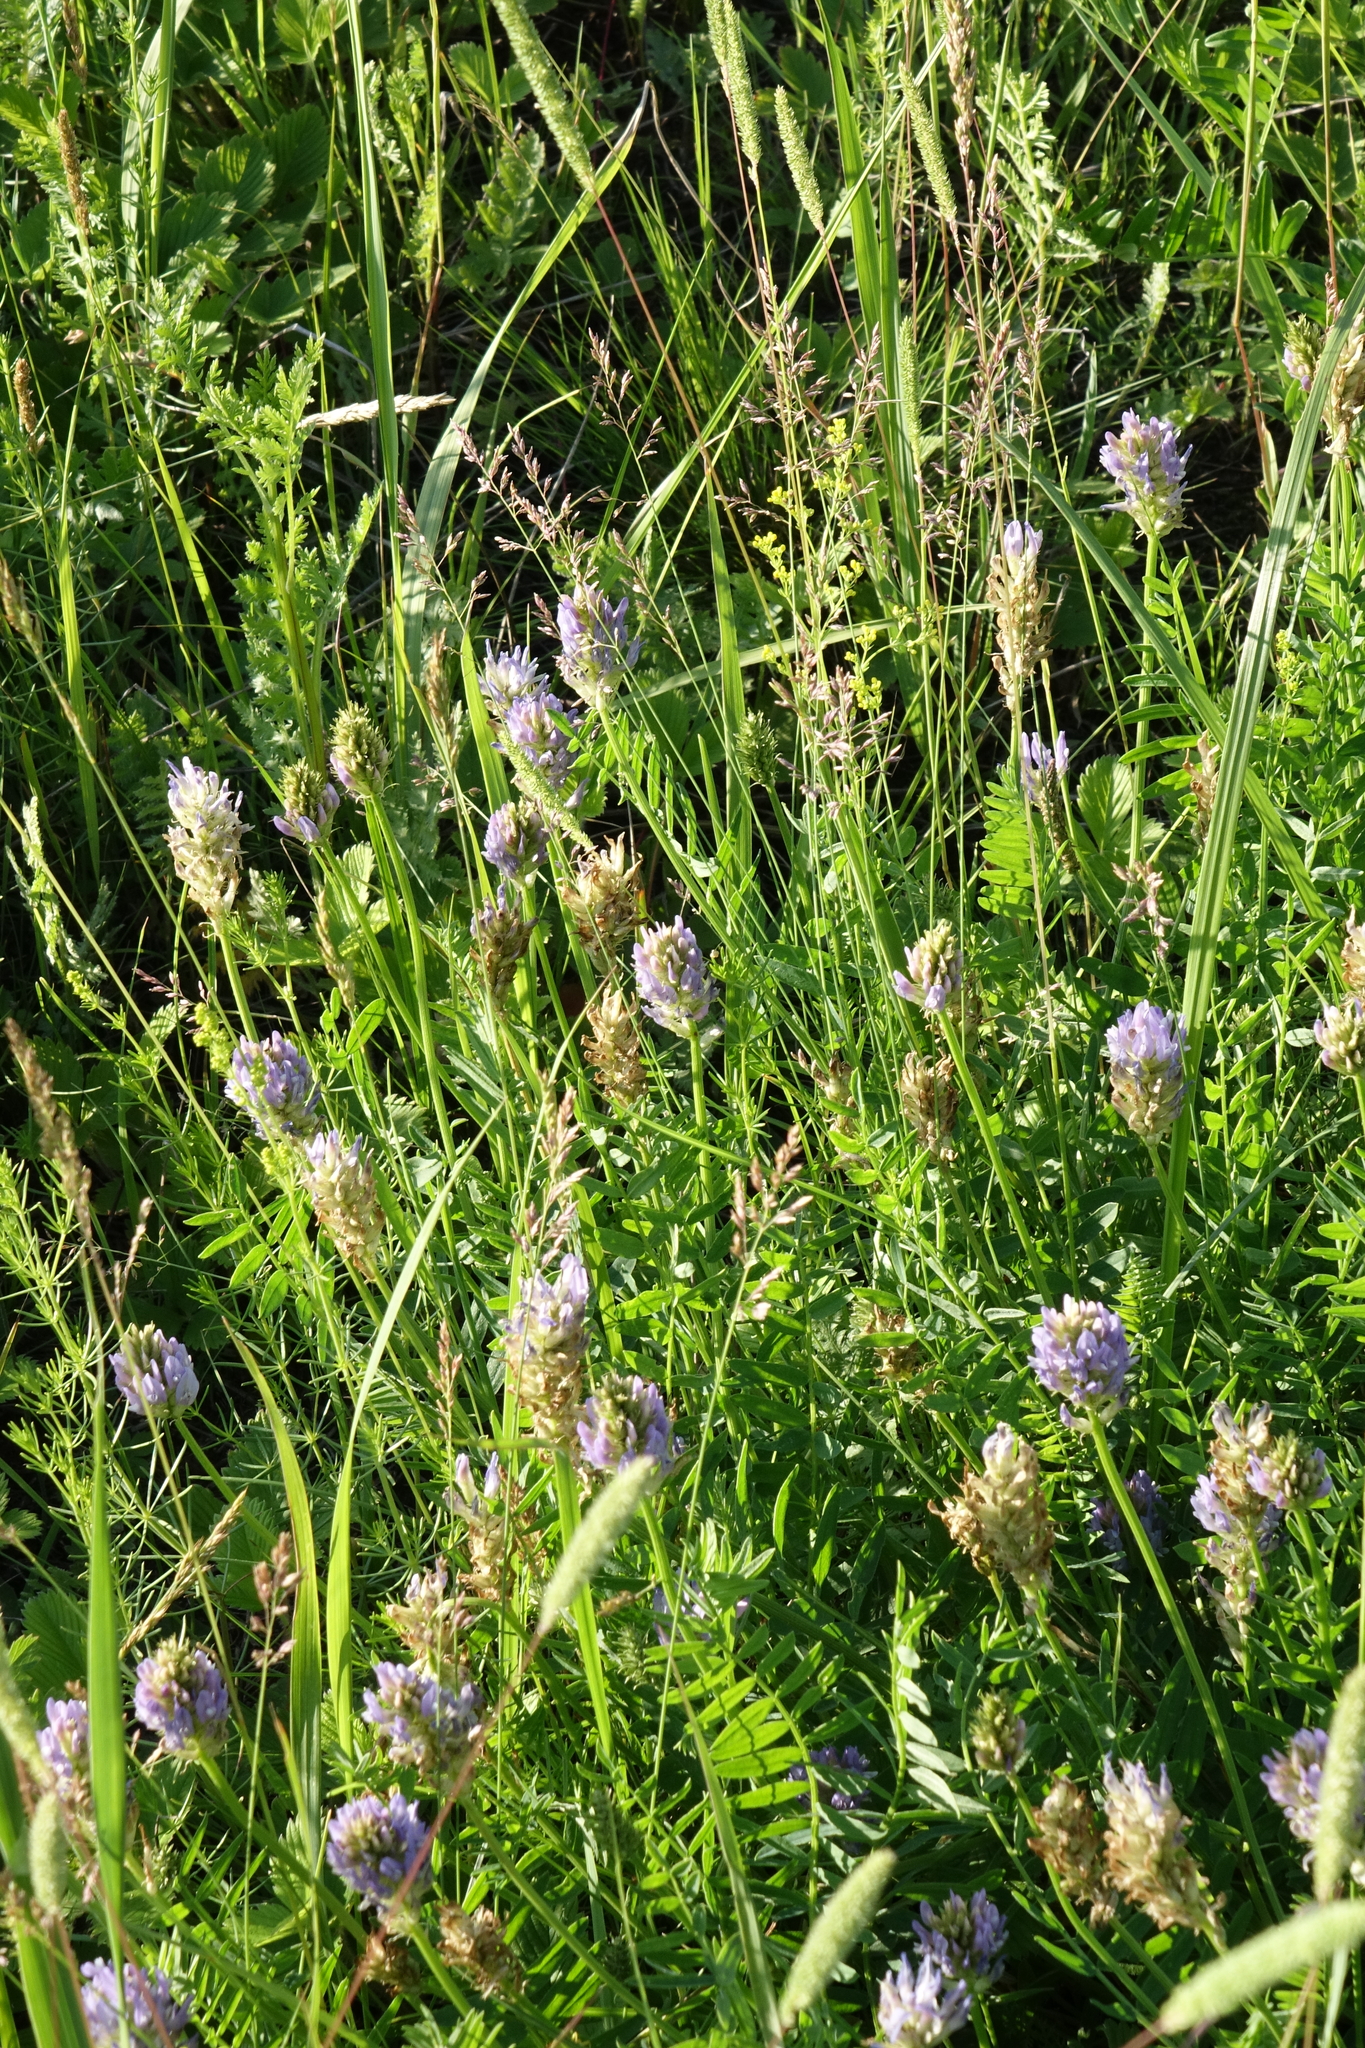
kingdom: Plantae
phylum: Tracheophyta
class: Magnoliopsida
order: Fabales
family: Fabaceae
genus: Astragalus
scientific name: Astragalus laxmannii
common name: Laxmann's milk-vetch
